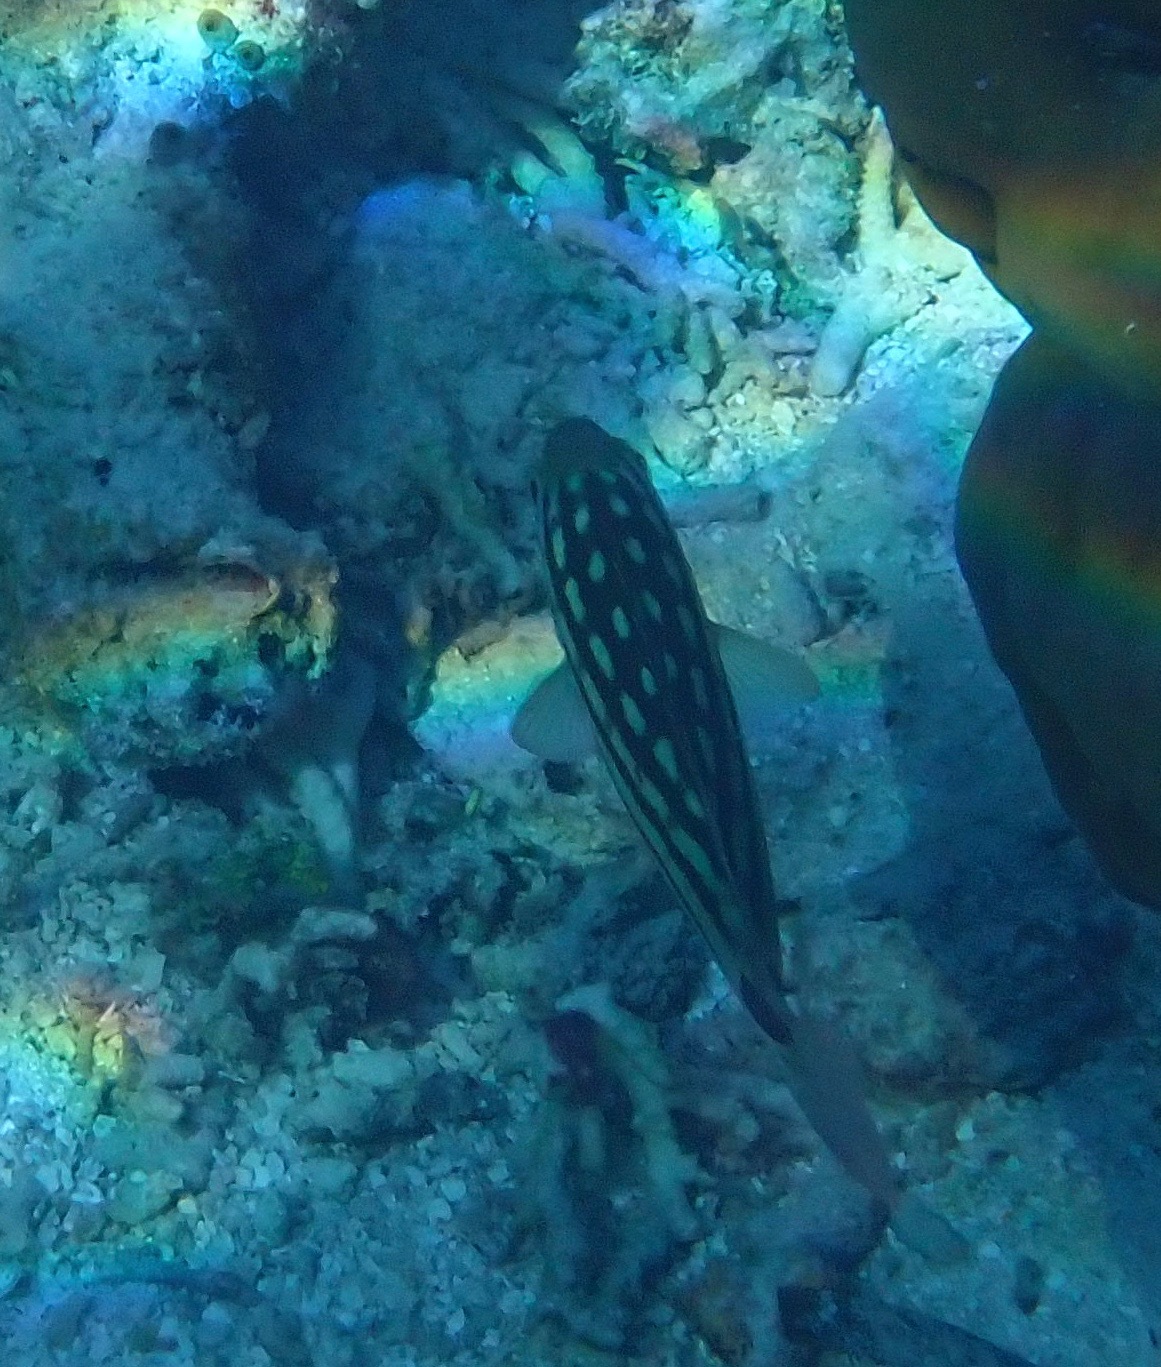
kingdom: Animalia
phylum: Chordata
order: Perciformes
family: Lutjanidae
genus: Lutjanus
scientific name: Lutjanus decussatus
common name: Checkered snapper
